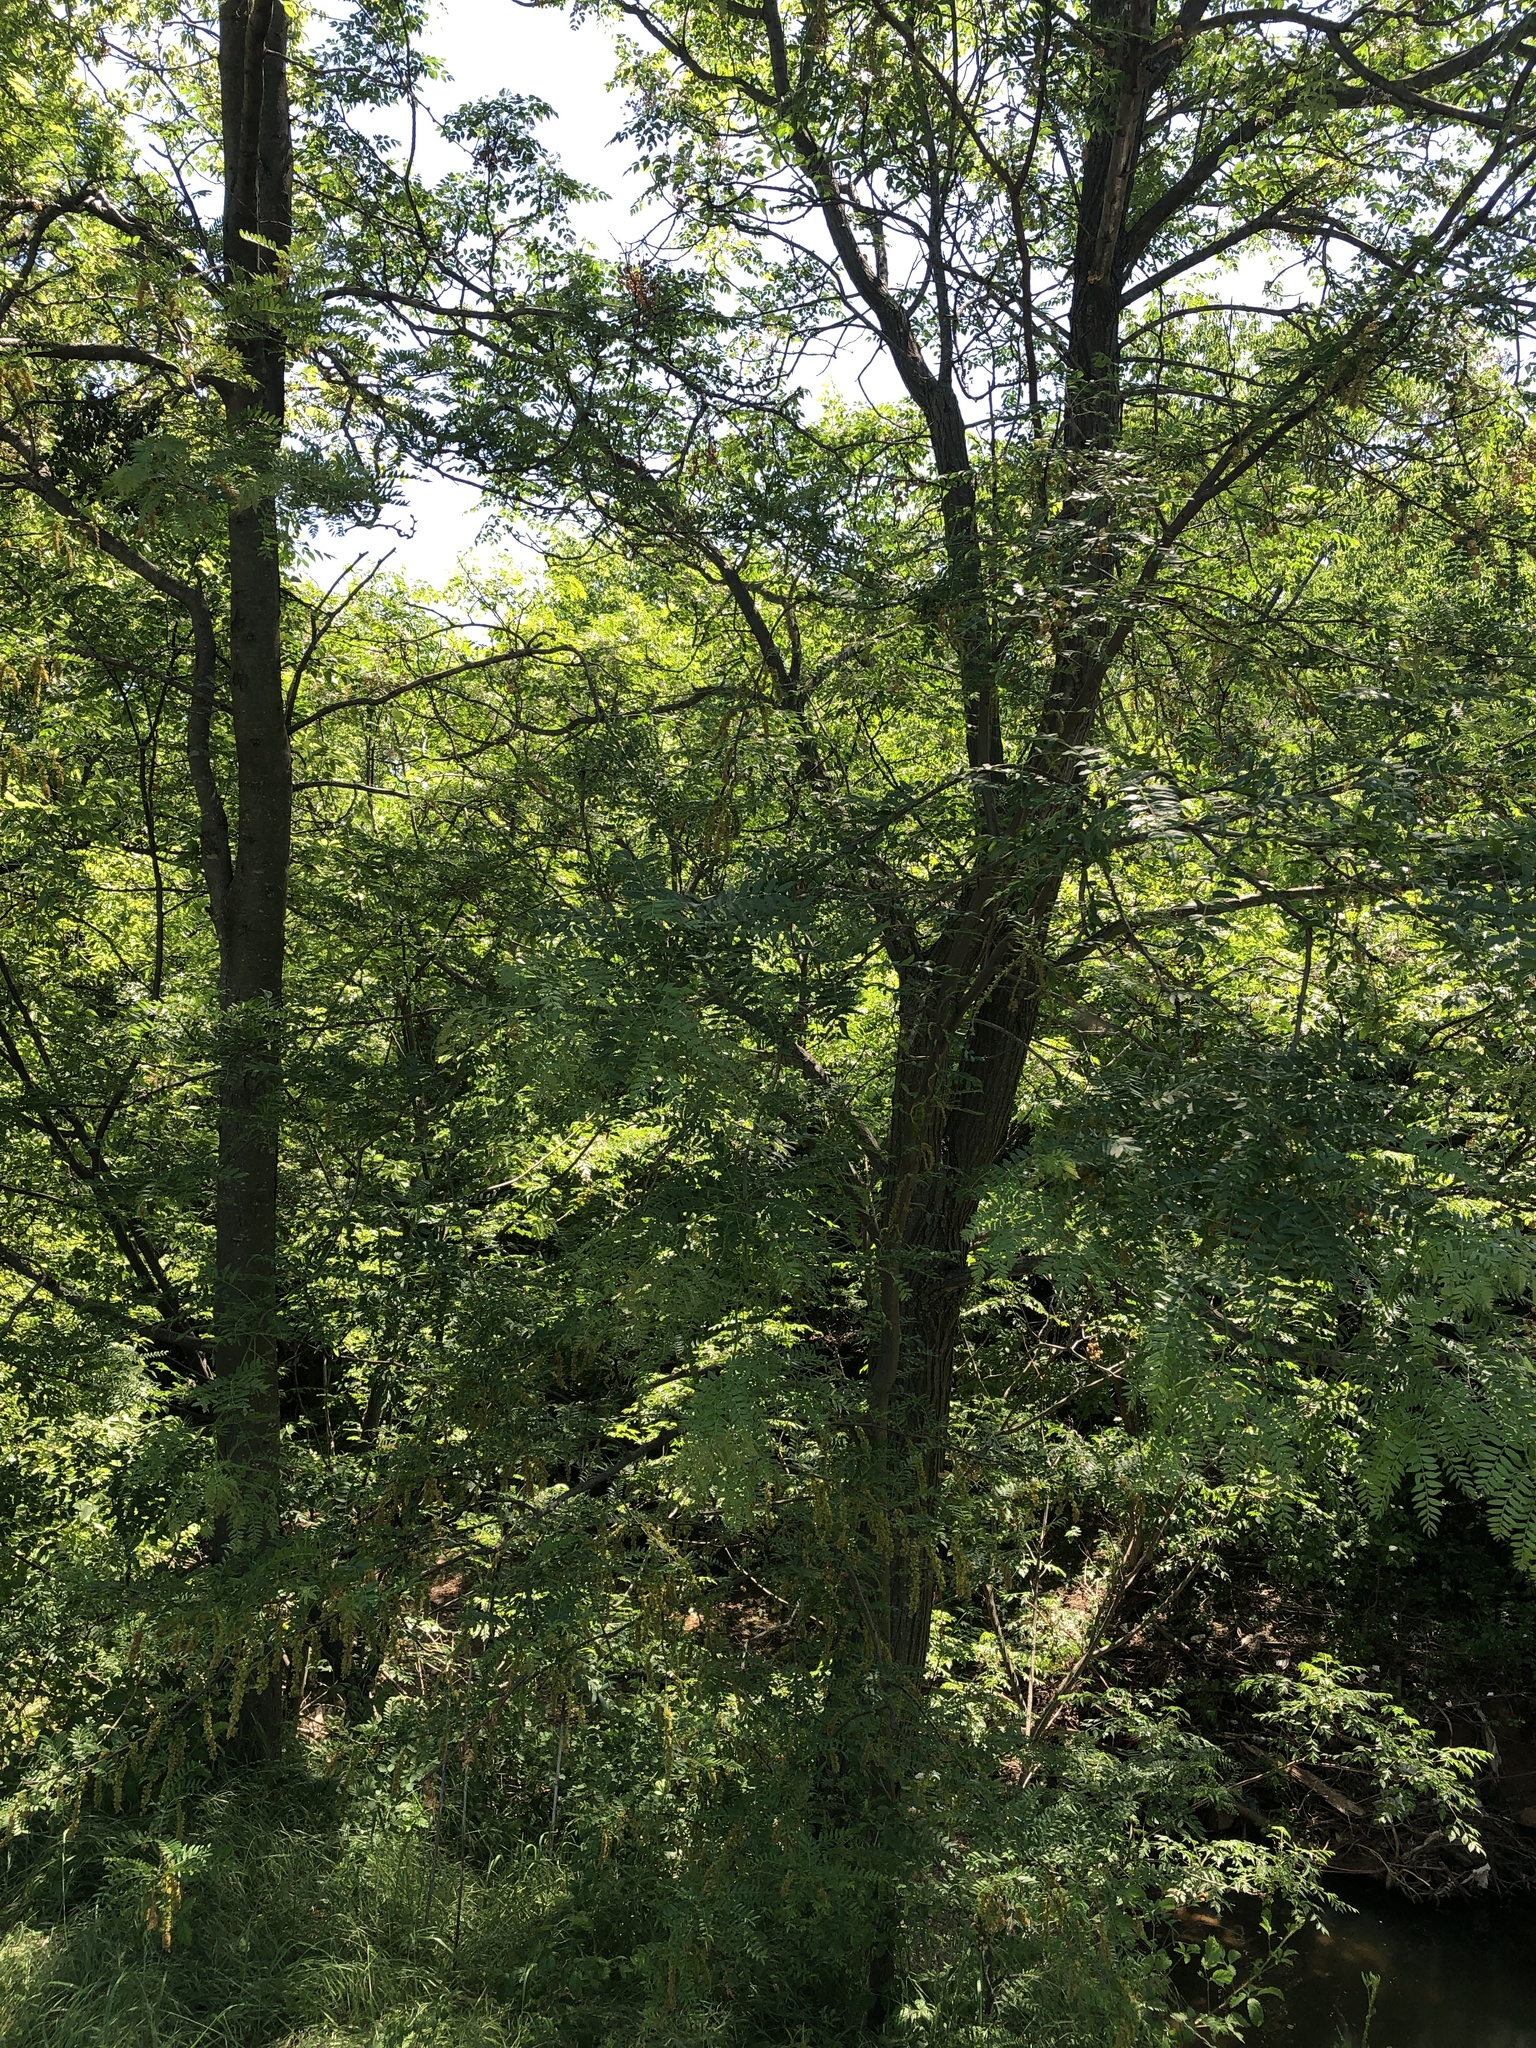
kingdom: Plantae
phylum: Tracheophyta
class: Magnoliopsida
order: Fabales
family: Fabaceae
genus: Prosopis
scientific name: Prosopis glandulosa
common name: Honey mesquite
